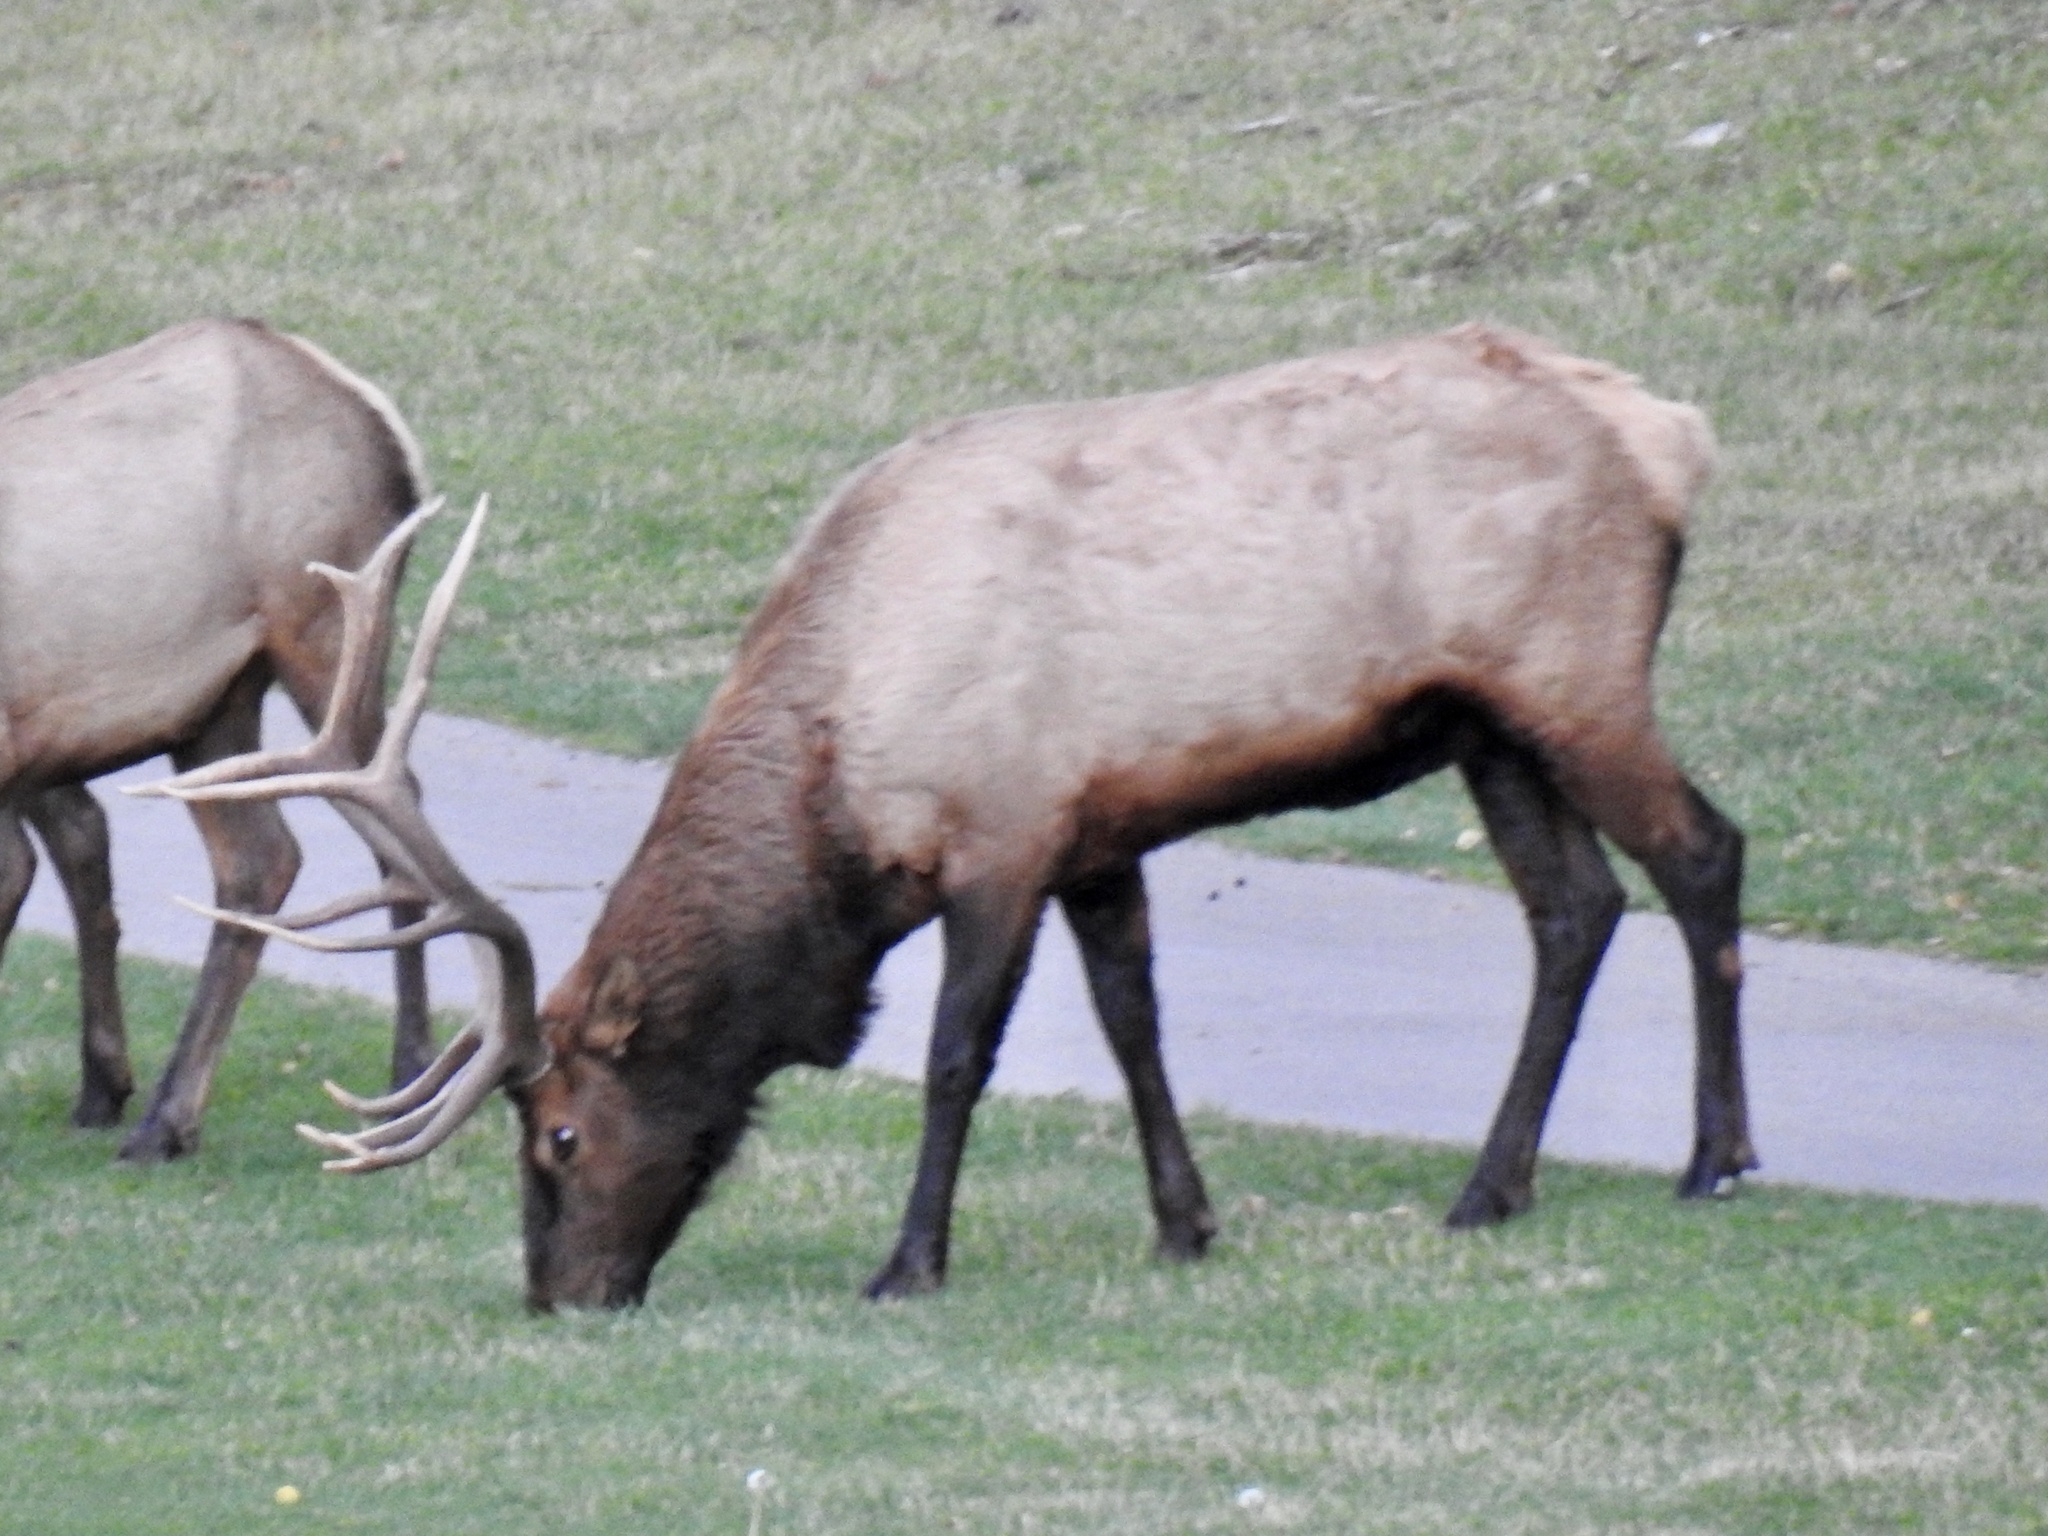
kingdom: Animalia
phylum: Chordata
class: Mammalia
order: Artiodactyla
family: Cervidae
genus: Cervus
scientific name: Cervus elaphus
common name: Red deer
